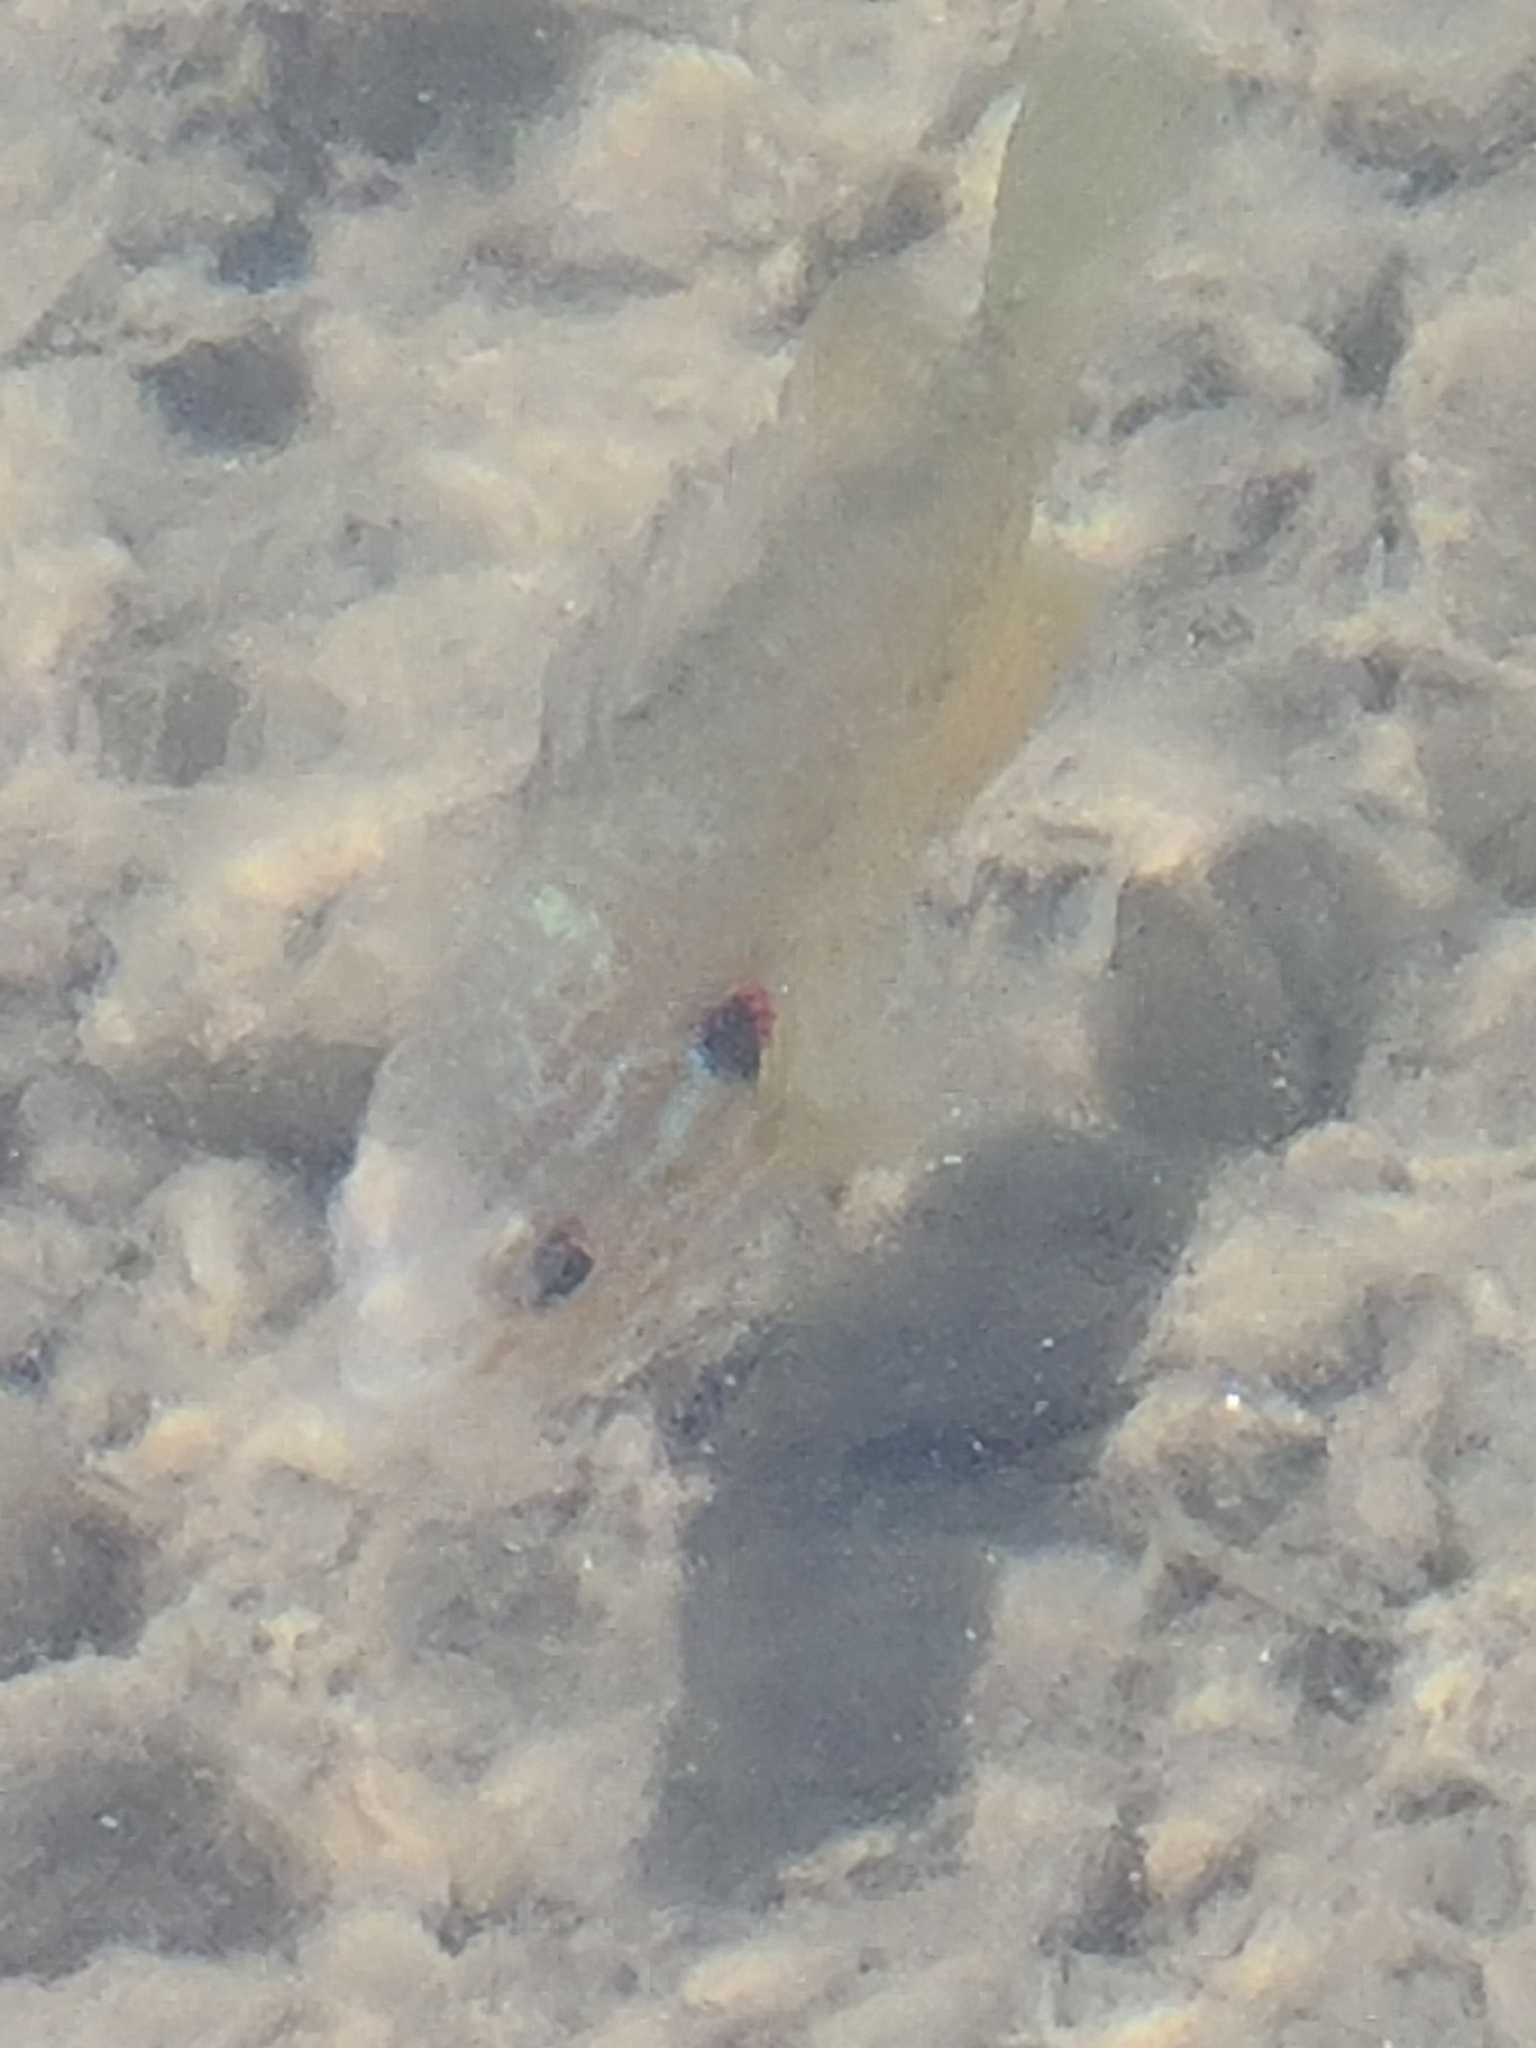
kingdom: Animalia
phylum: Chordata
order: Perciformes
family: Centrarchidae
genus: Lepomis
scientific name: Lepomis gibbosus
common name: Pumpkinseed
